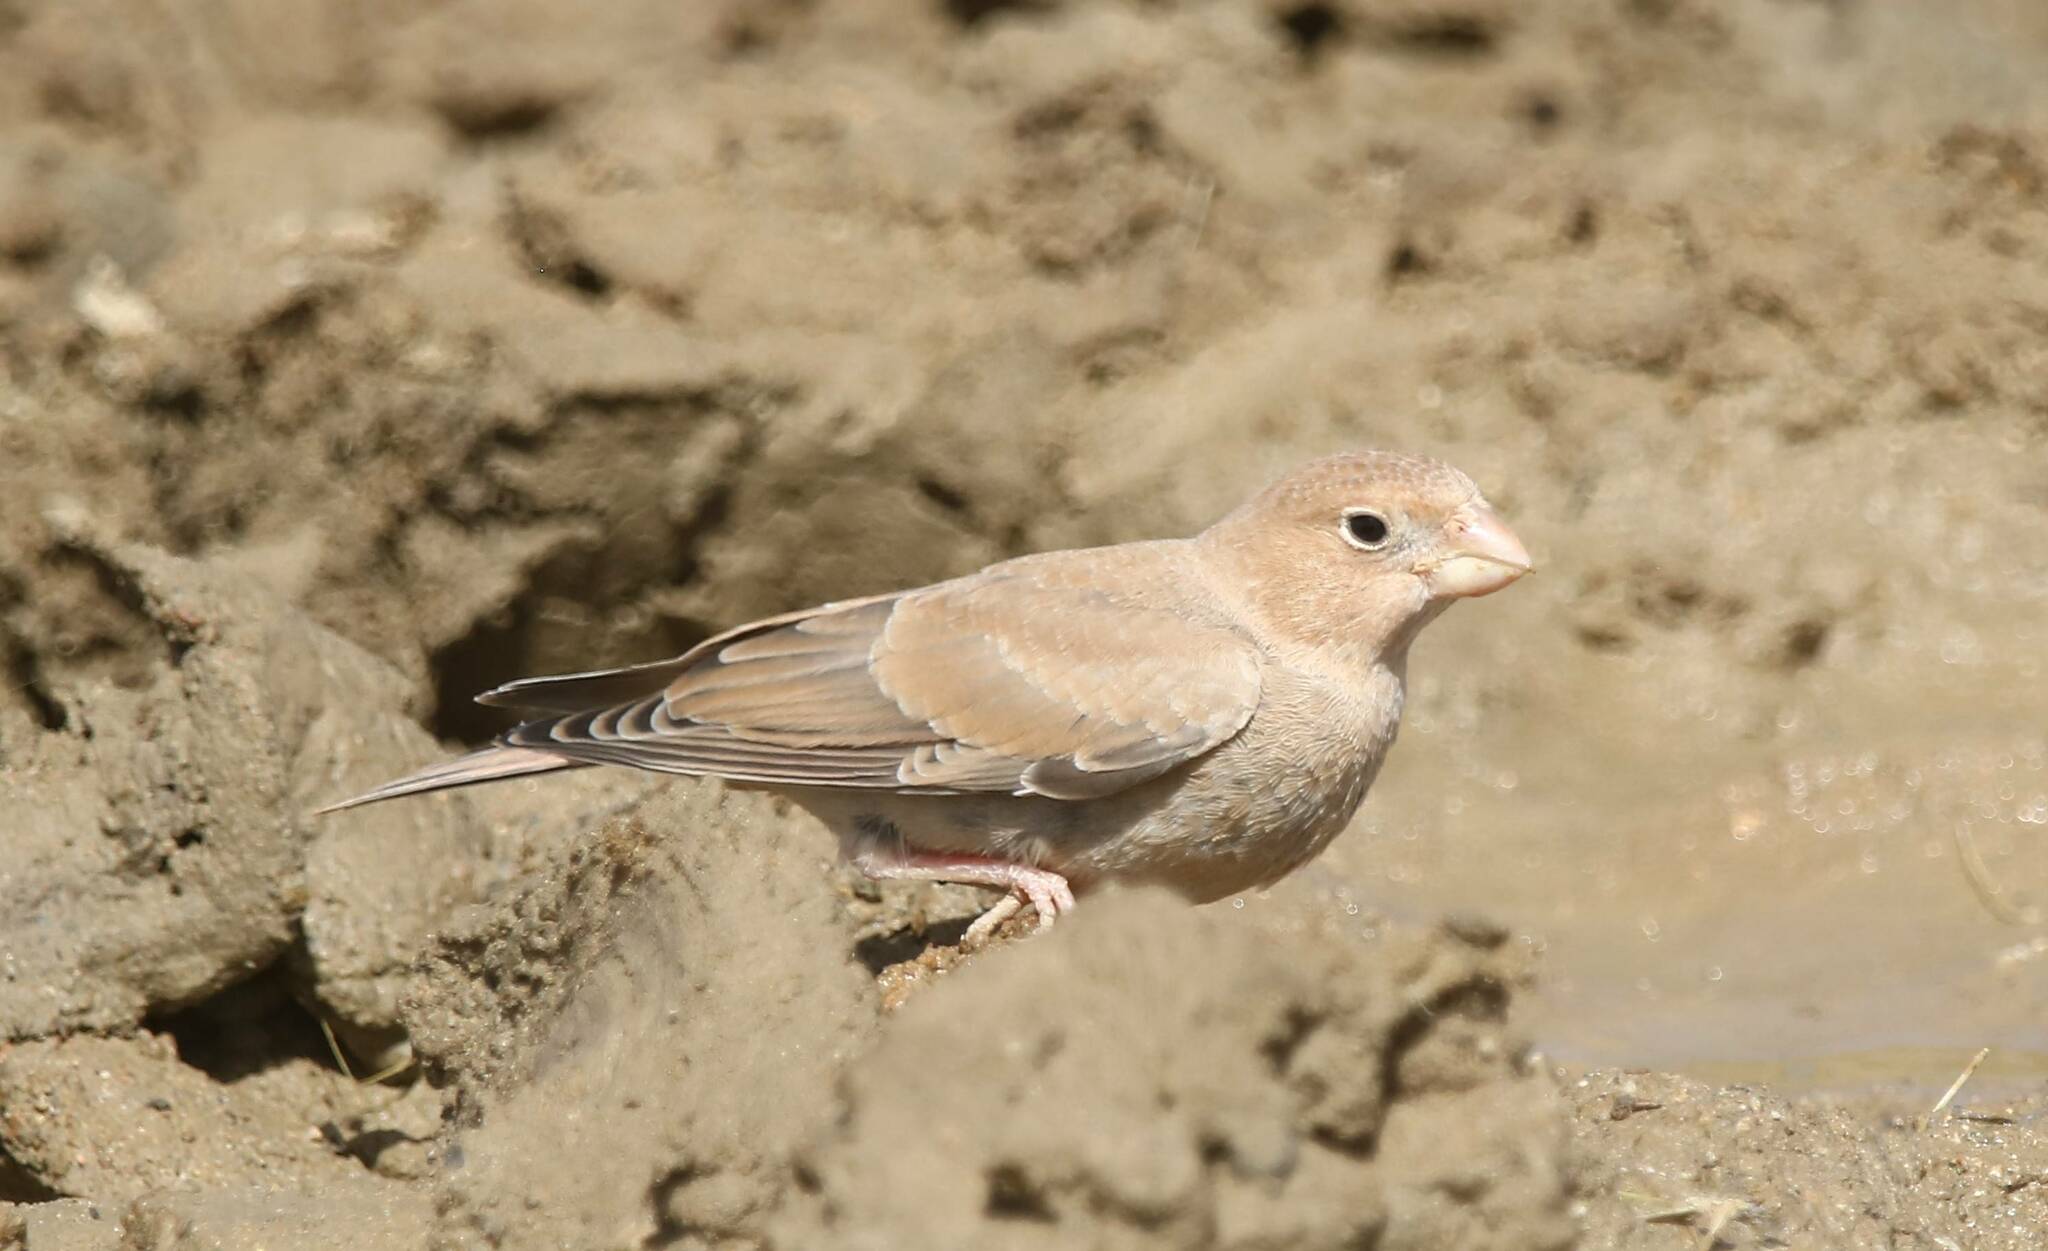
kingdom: Animalia
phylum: Chordata
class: Aves
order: Passeriformes
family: Fringillidae
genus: Bucanetes
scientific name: Bucanetes githagineus
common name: Trumpeter finch
